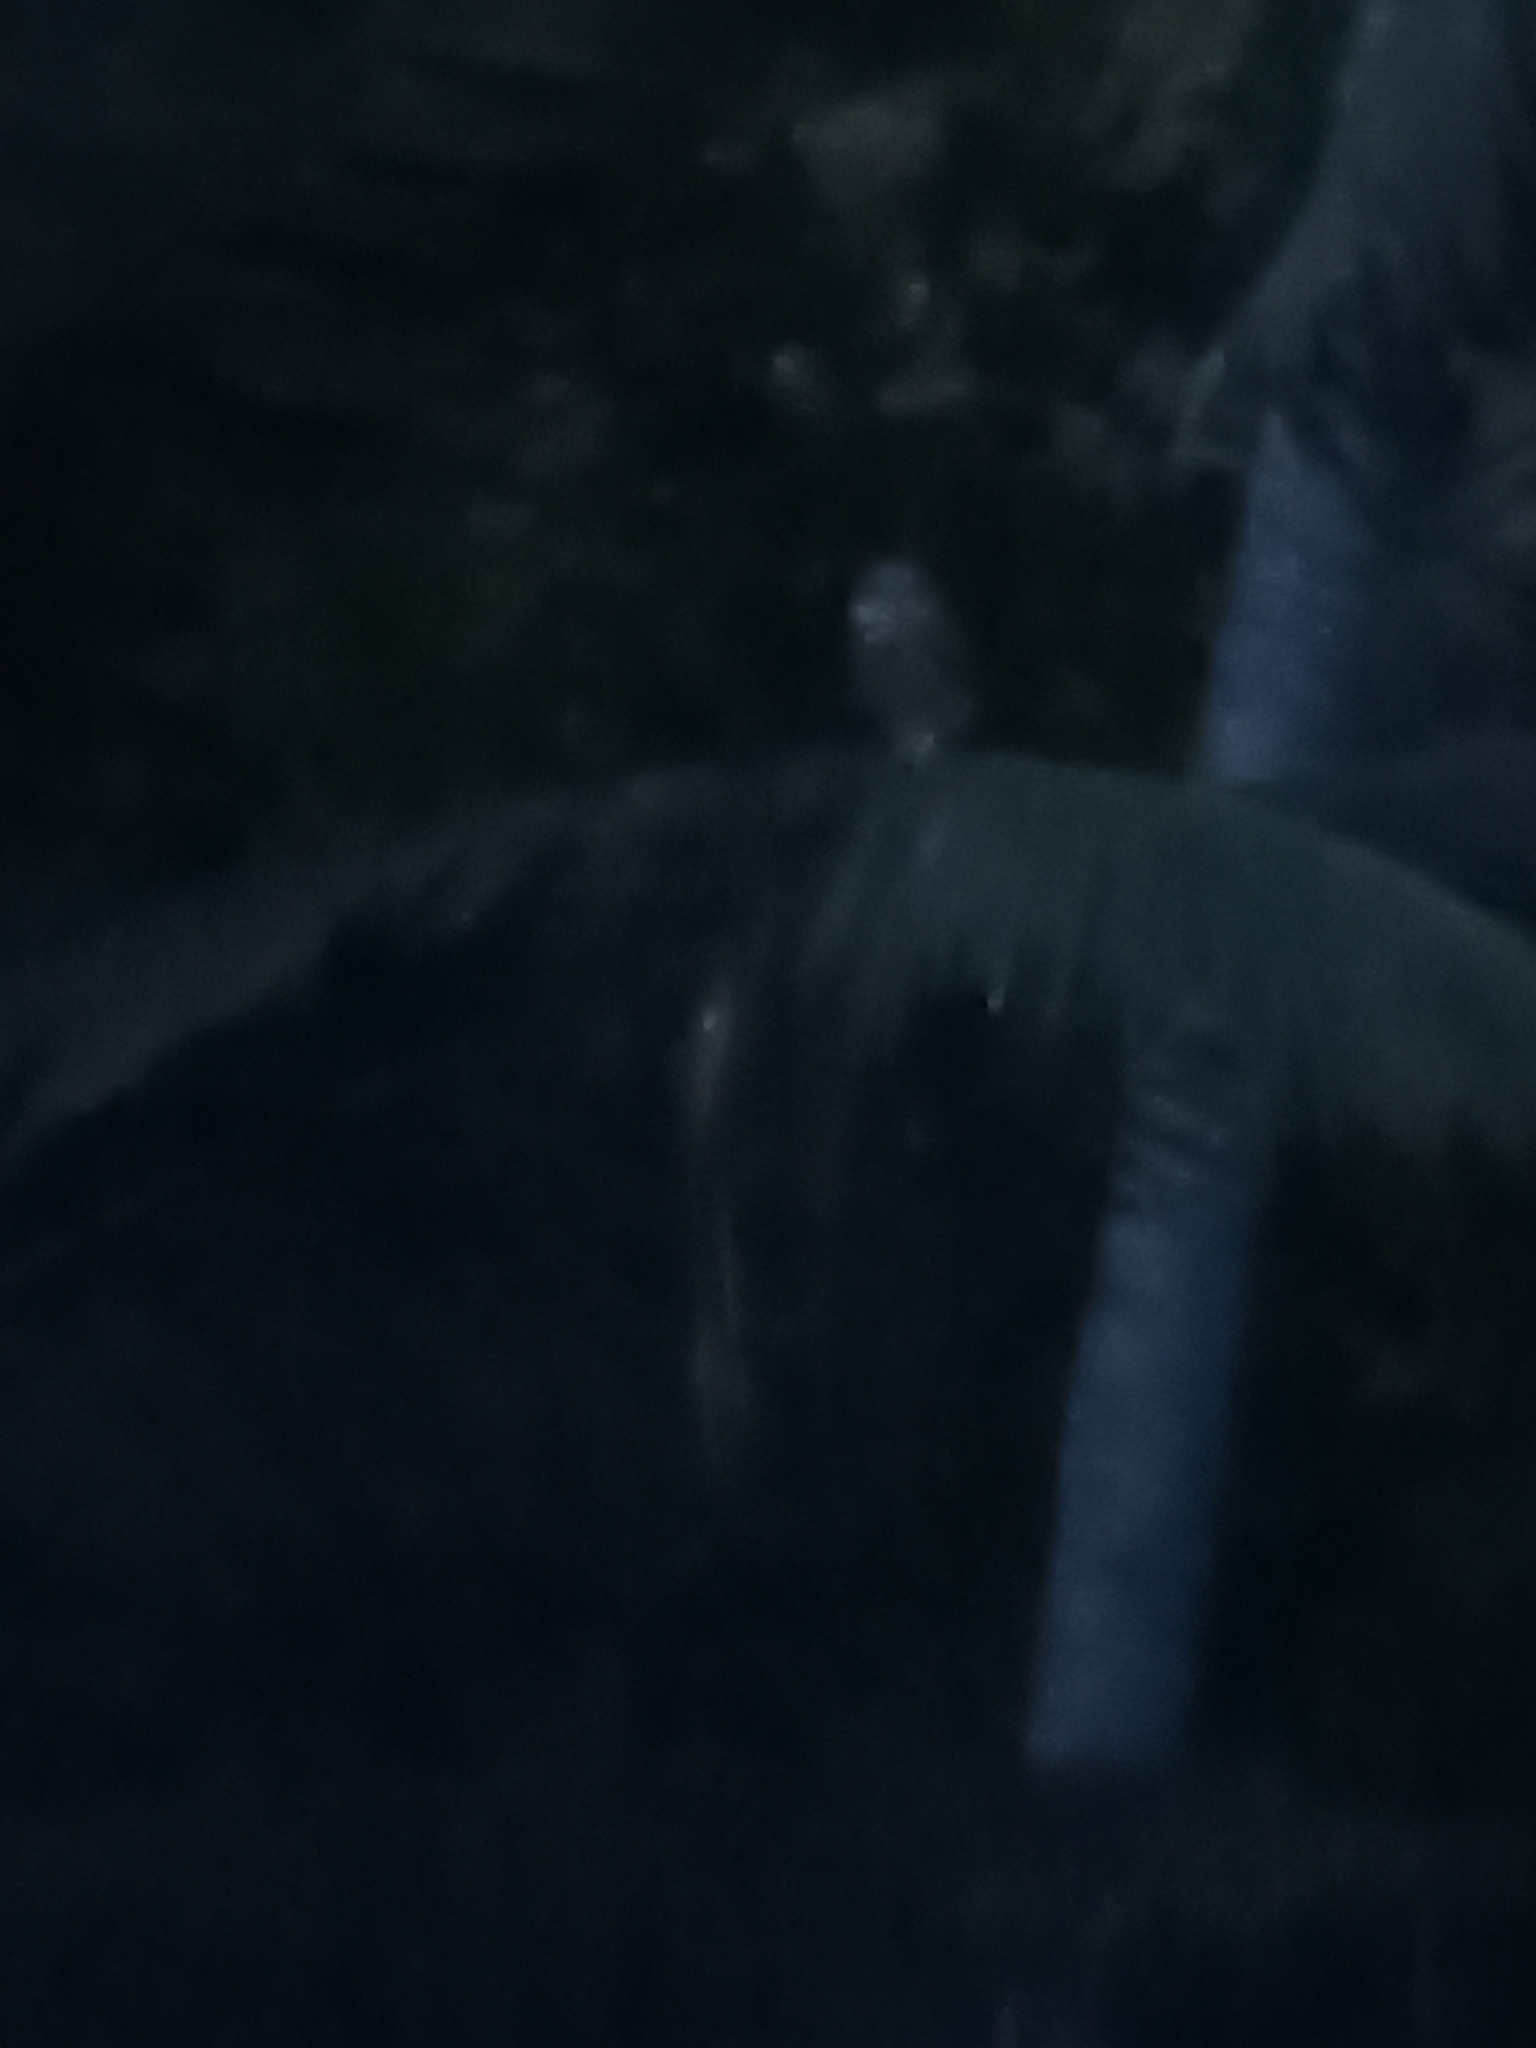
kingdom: Animalia
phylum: Chordata
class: Aves
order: Strigiformes
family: Strigidae
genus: Athene
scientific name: Athene brama
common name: Spotted owlet
